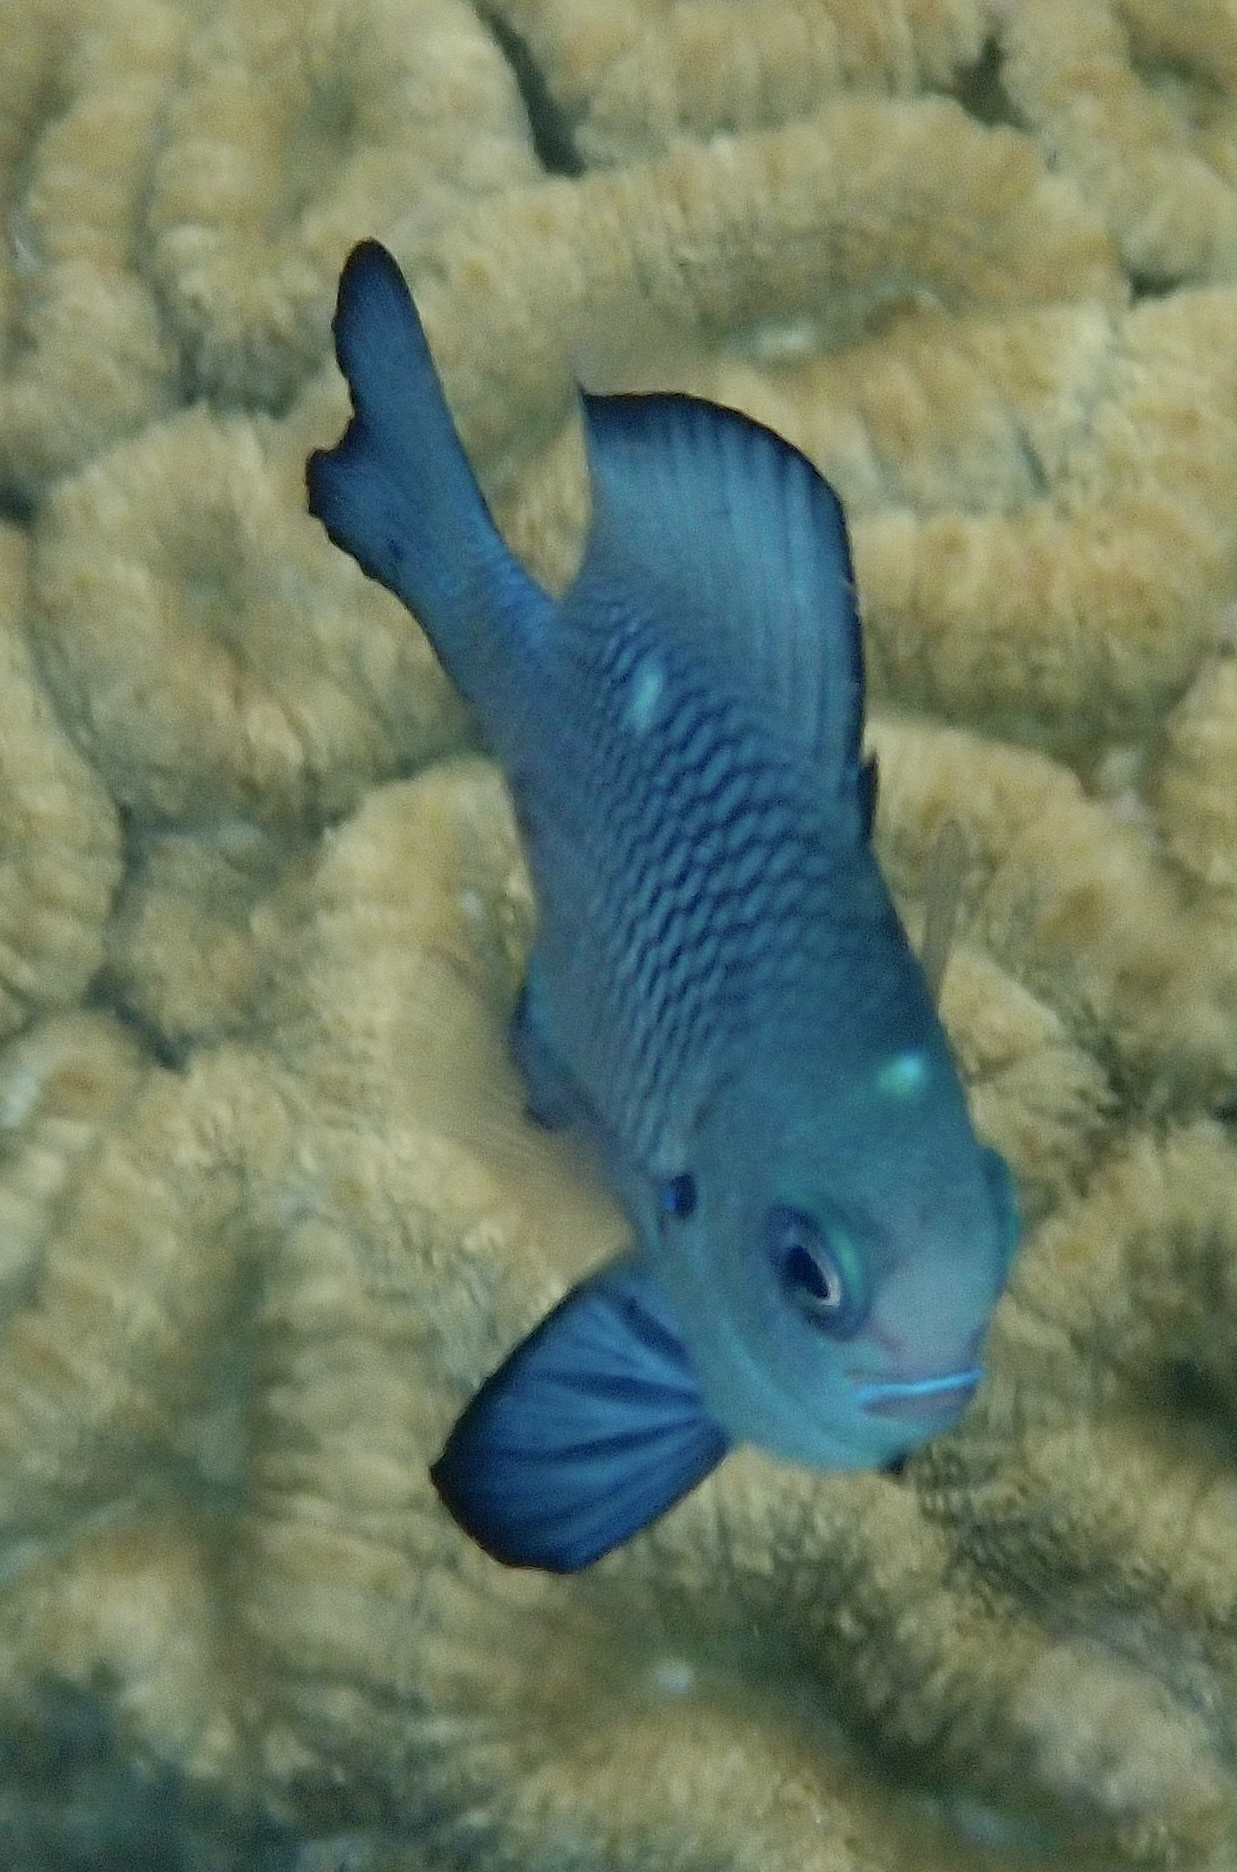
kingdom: Animalia
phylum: Chordata
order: Perciformes
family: Pomacentridae
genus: Dascyllus
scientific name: Dascyllus trimaculatus
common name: Threespot dascyllus
